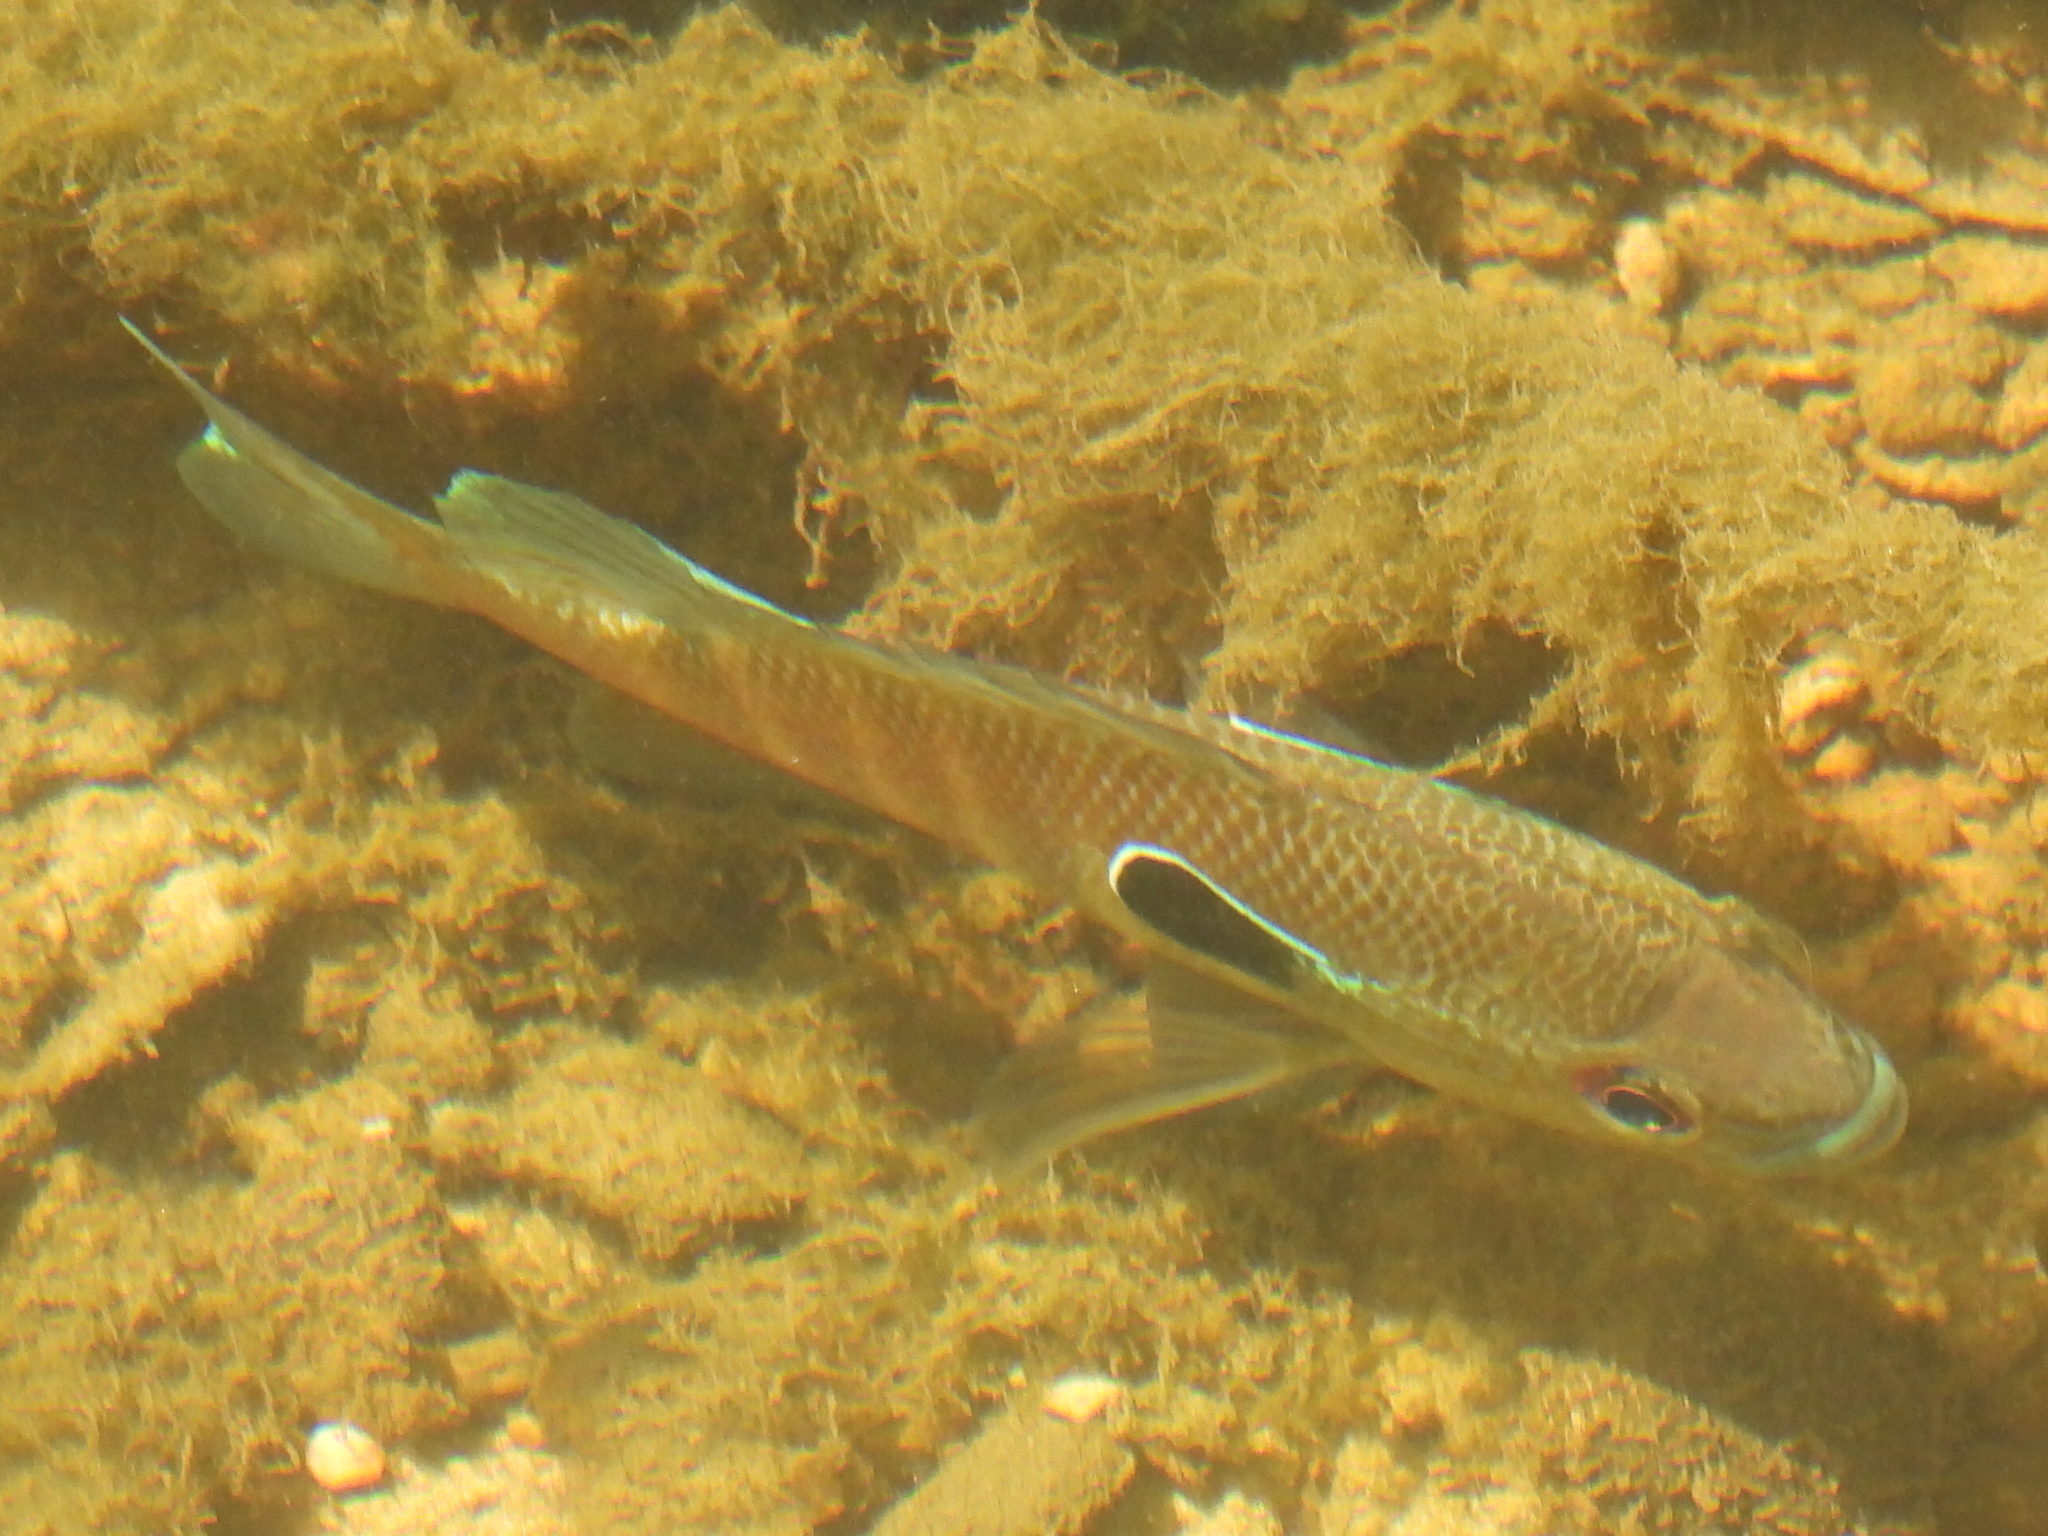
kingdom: Animalia
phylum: Chordata
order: Perciformes
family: Centrarchidae
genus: Lepomis
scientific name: Lepomis aquilensis
